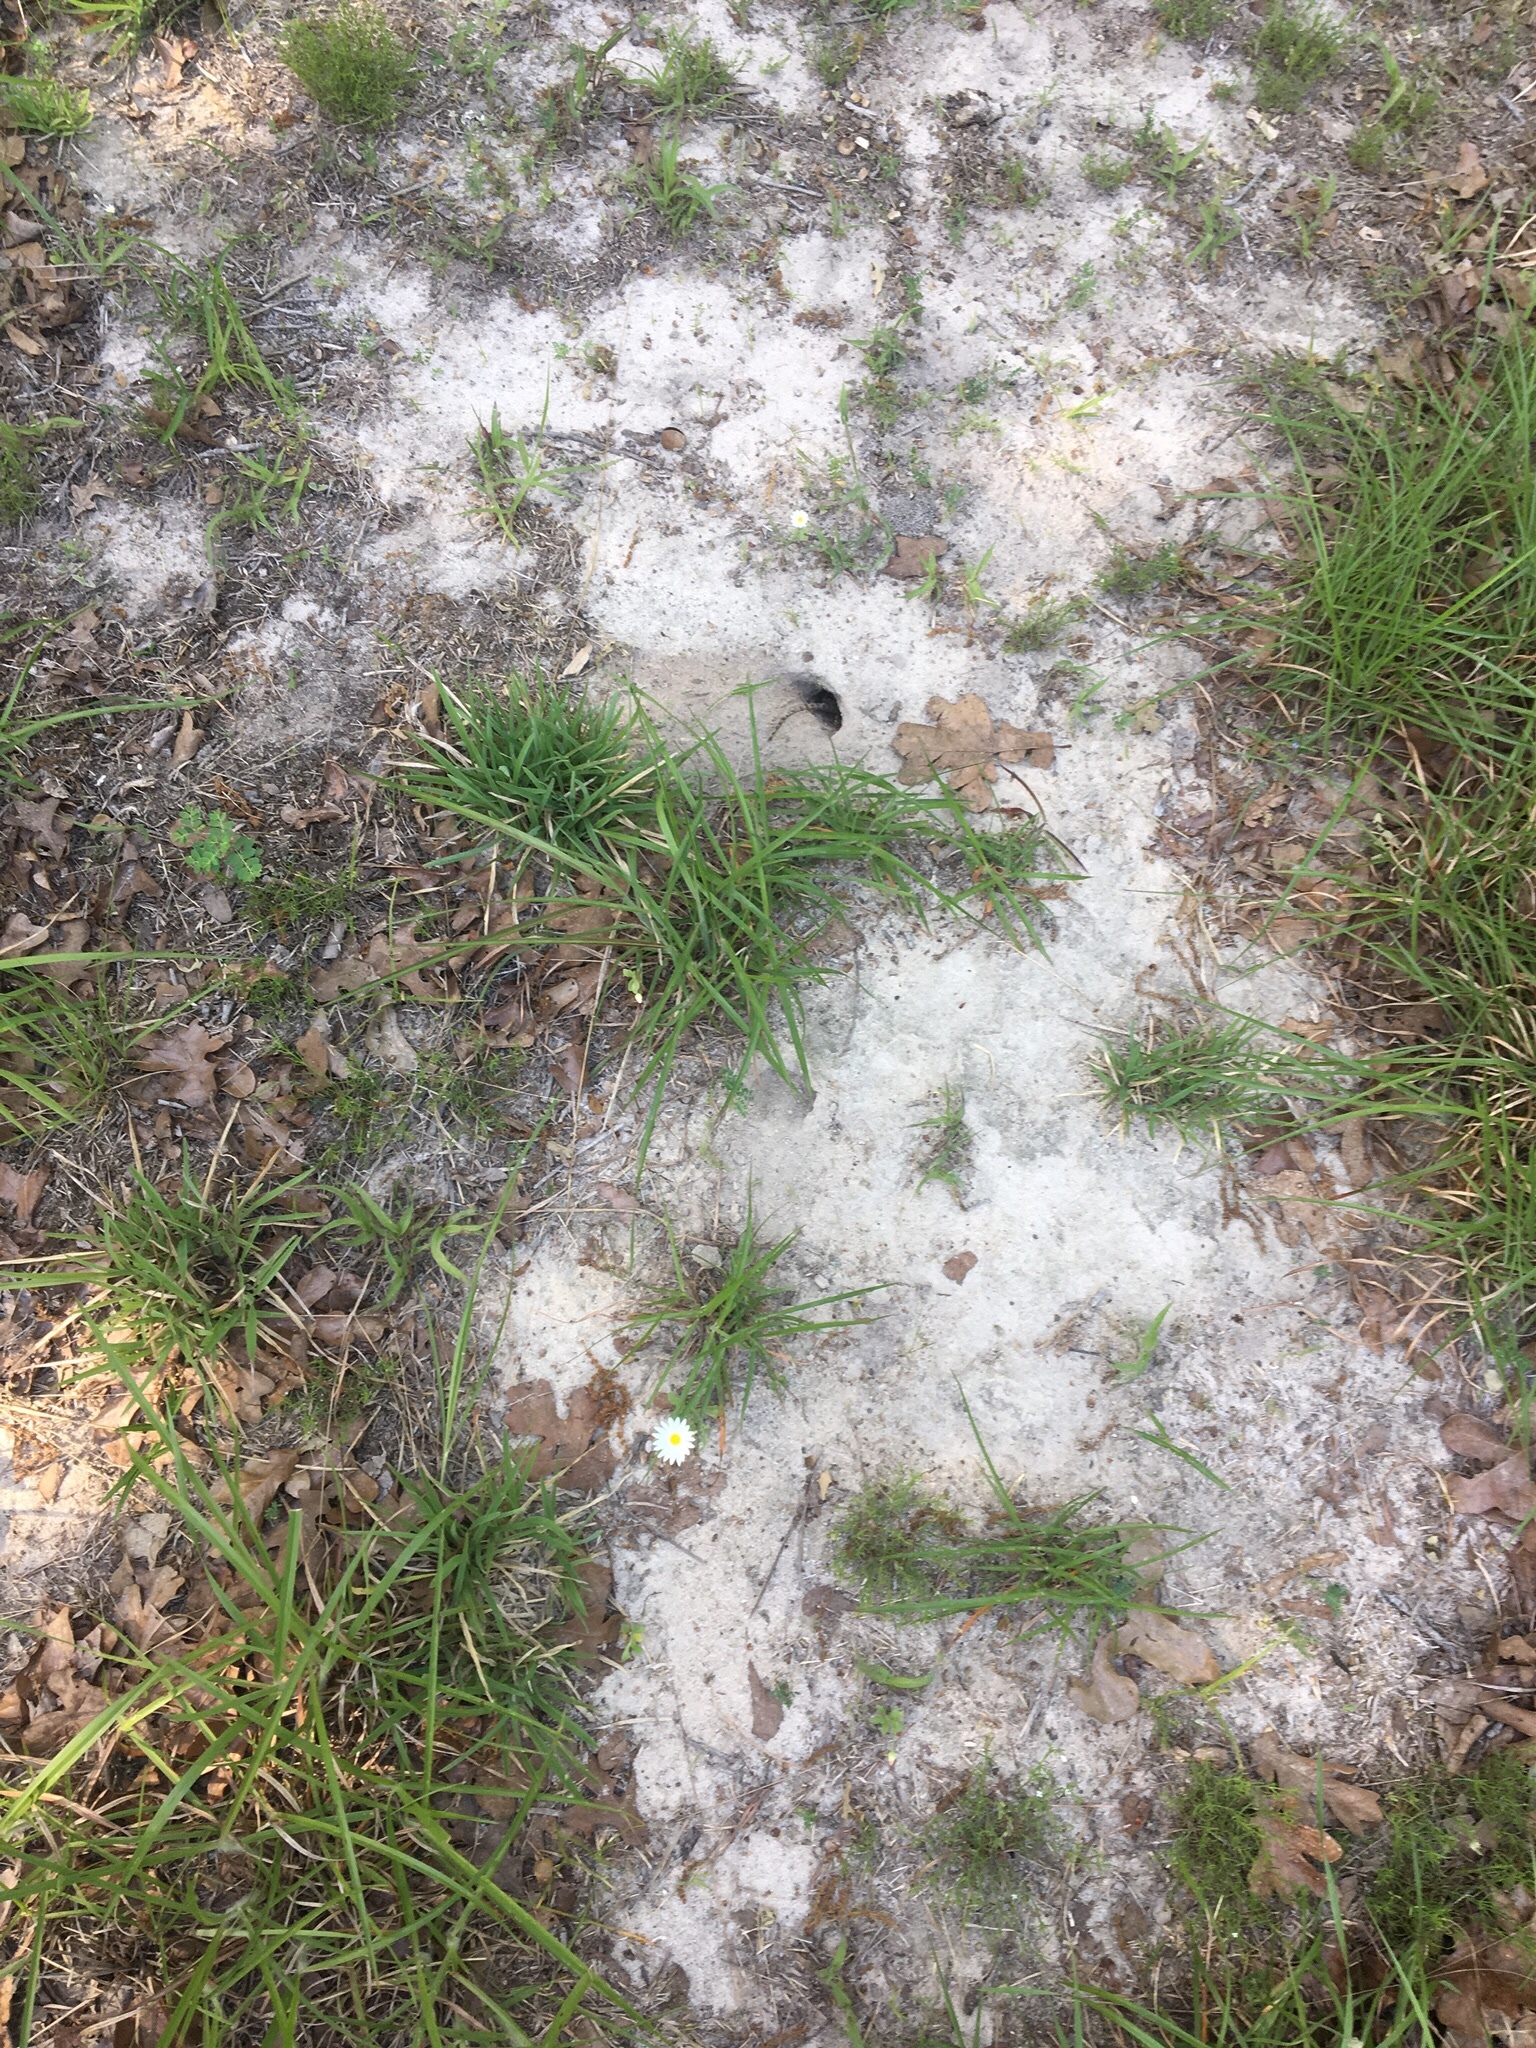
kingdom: Animalia
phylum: Chordata
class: Squamata
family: Phrynosomatidae
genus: Sceloporus
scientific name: Sceloporus olivaceus
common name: Texas spiny lizard
